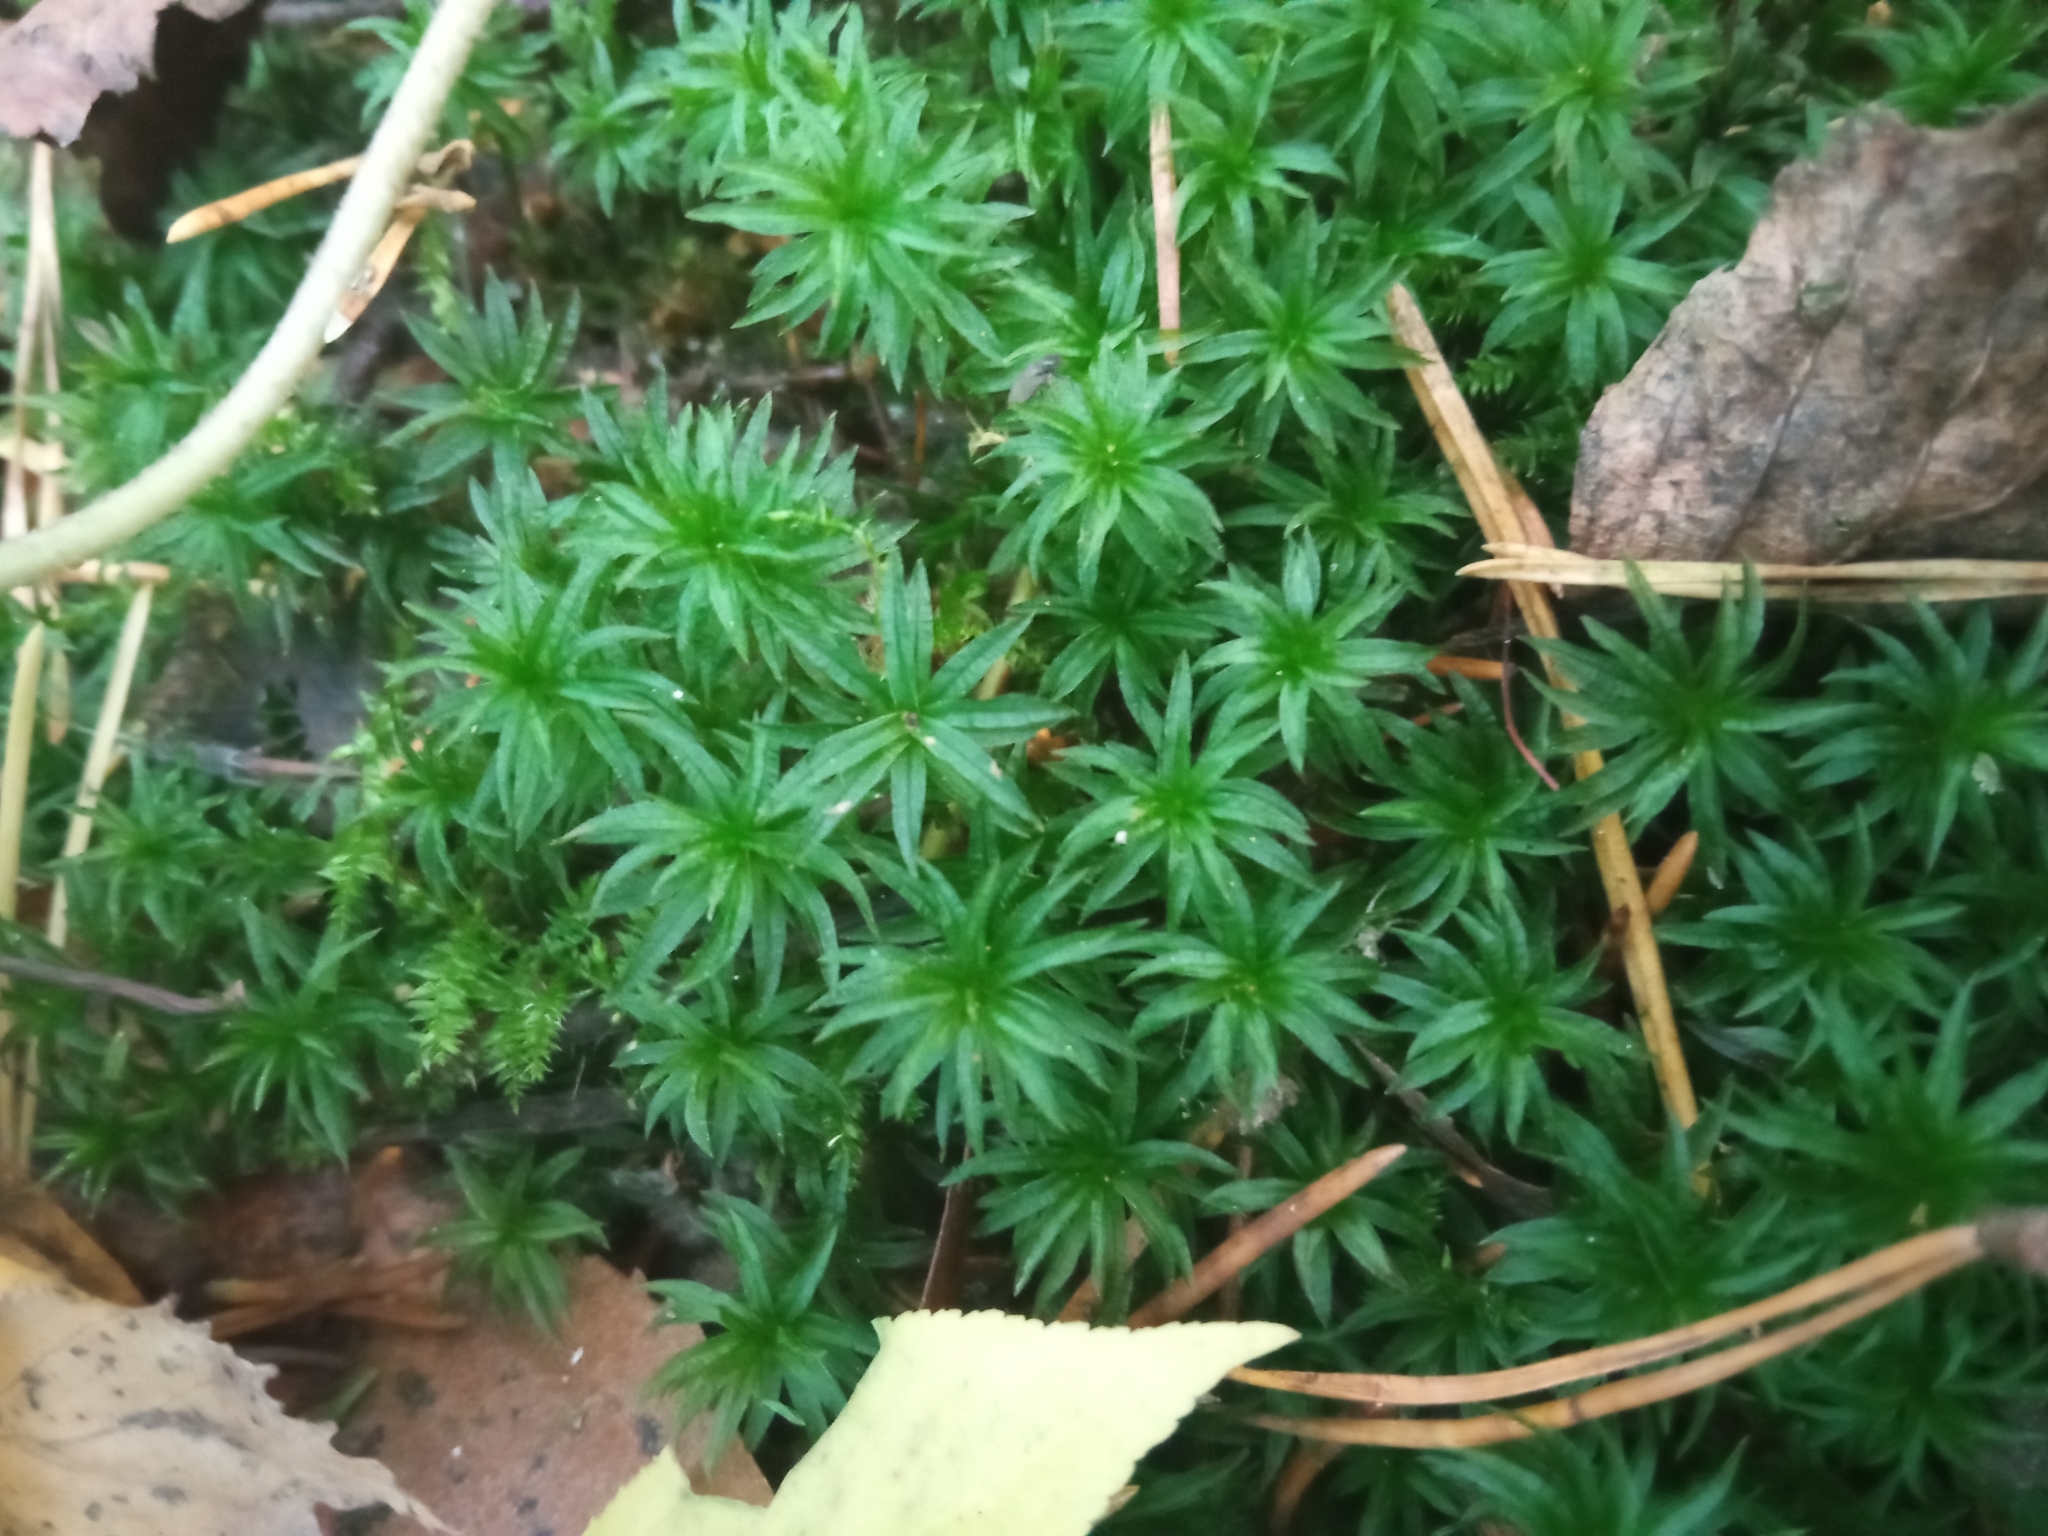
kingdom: Plantae
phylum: Bryophyta
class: Polytrichopsida
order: Polytrichales
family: Polytrichaceae
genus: Atrichum
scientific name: Atrichum undulatum
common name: Common smoothcap
